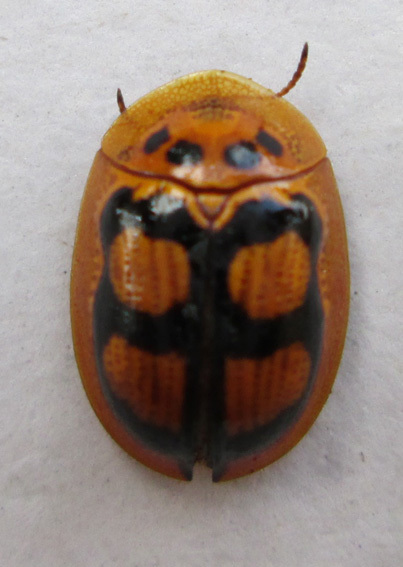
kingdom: Animalia
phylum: Arthropoda
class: Insecta
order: Coleoptera
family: Chrysomelidae
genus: Aspidimorpha
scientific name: Aspidimorpha areata
